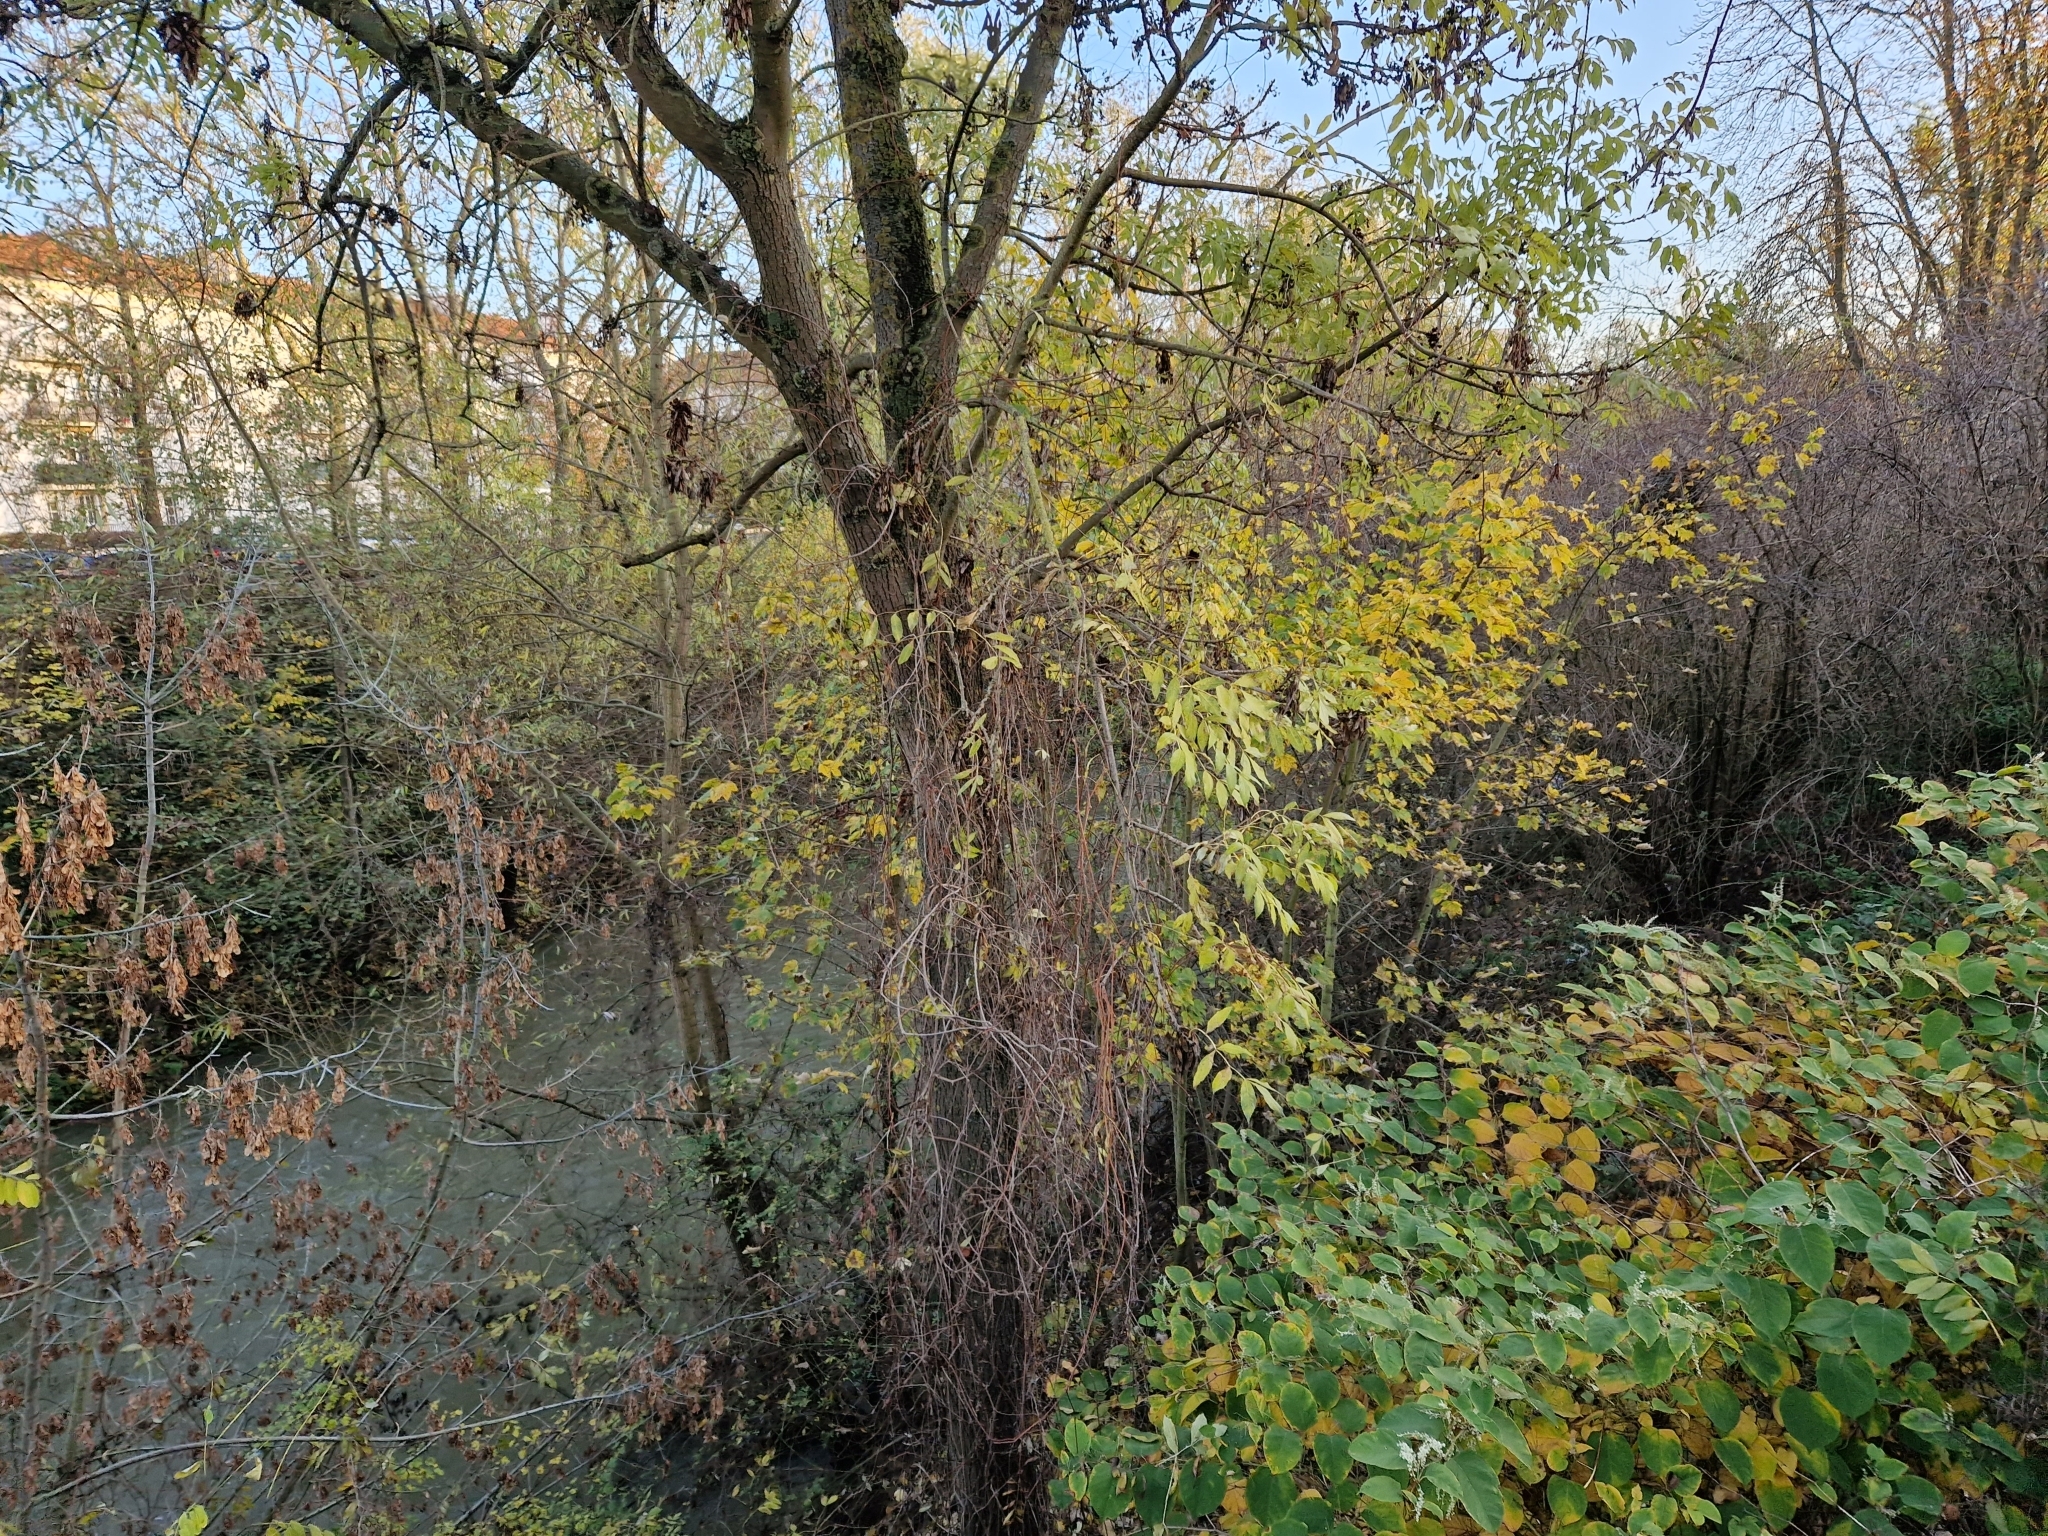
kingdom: Plantae
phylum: Tracheophyta
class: Magnoliopsida
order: Lamiales
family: Oleaceae
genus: Fraxinus
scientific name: Fraxinus excelsior
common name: European ash
